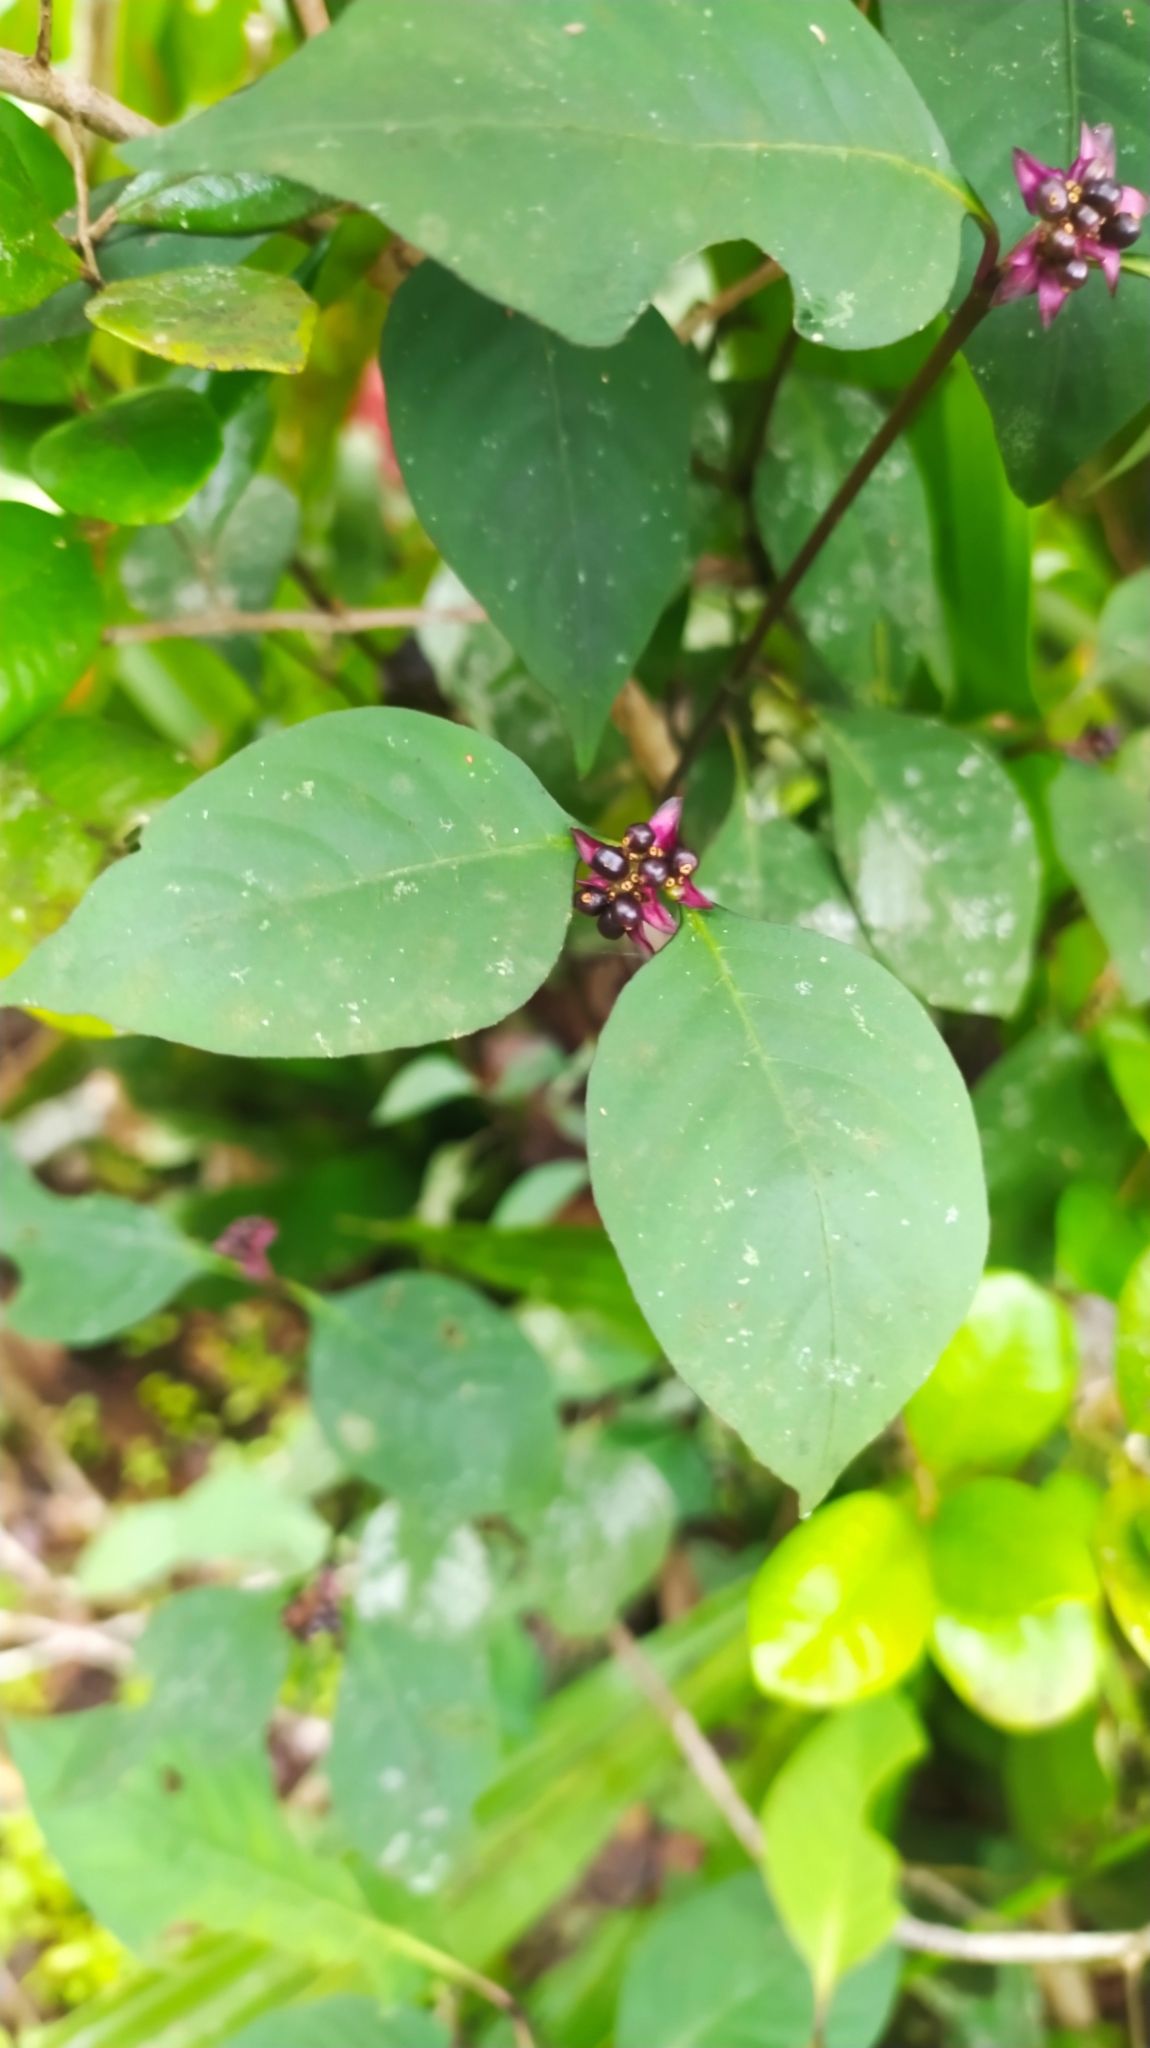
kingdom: Plantae
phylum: Tracheophyta
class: Magnoliopsida
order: Gentianales
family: Rubiaceae
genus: Palicourea
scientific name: Palicourea hoffmannseggiana
